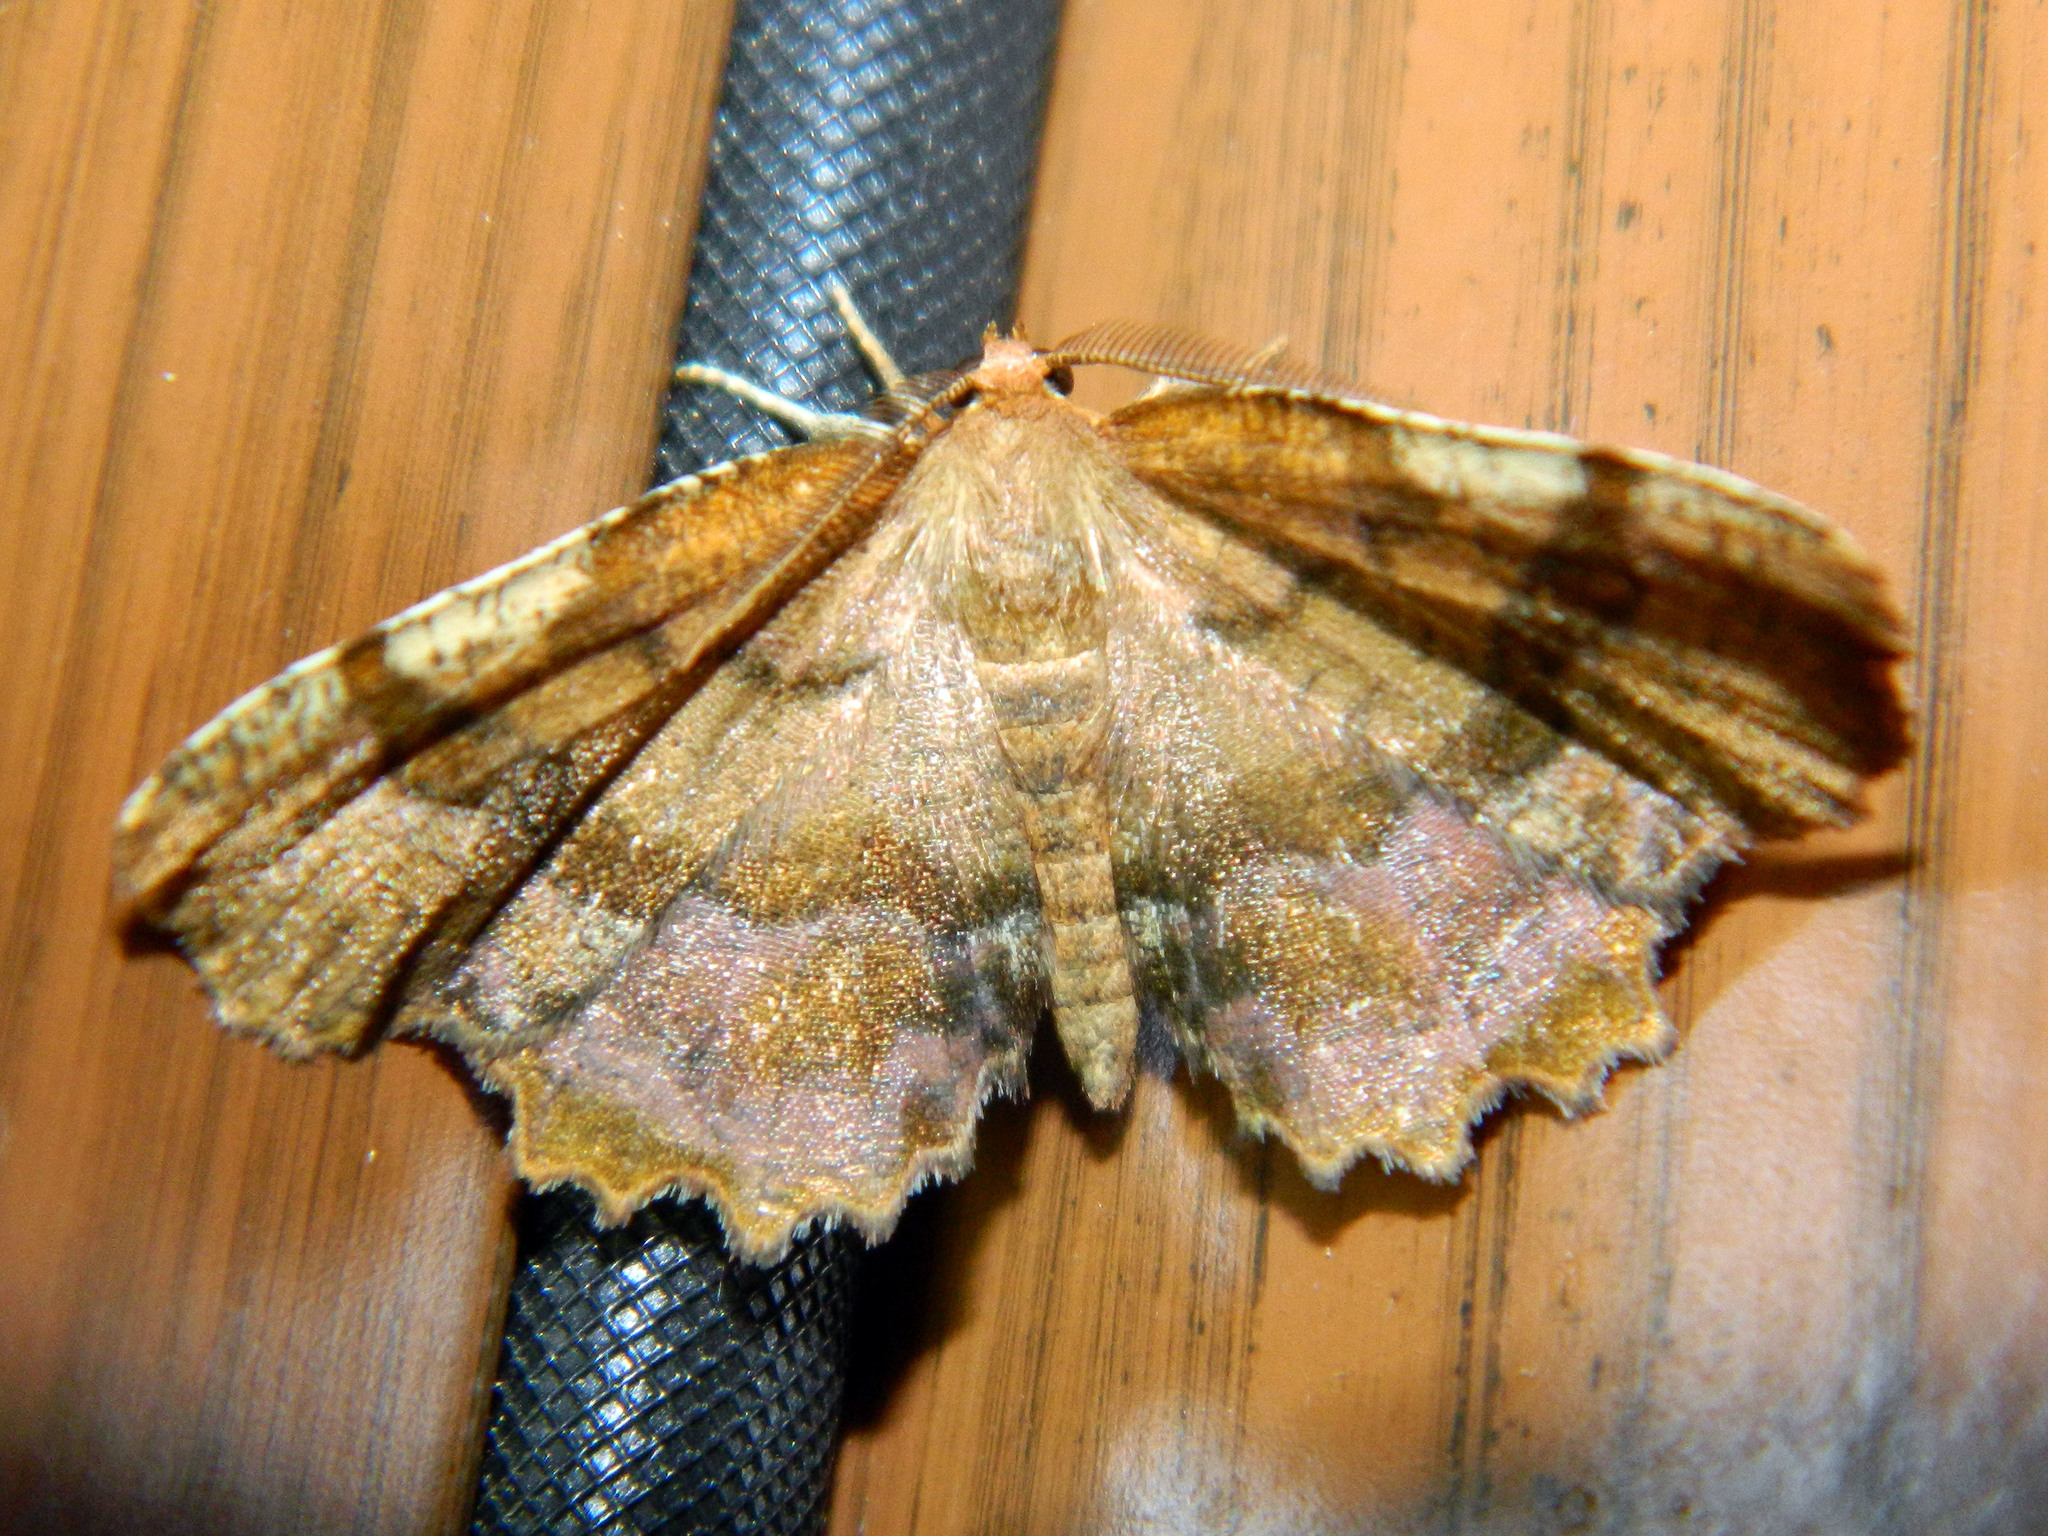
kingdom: Animalia
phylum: Arthropoda
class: Insecta
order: Lepidoptera
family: Geometridae
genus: Cepphis
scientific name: Cepphis armataria
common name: Scallop moth
